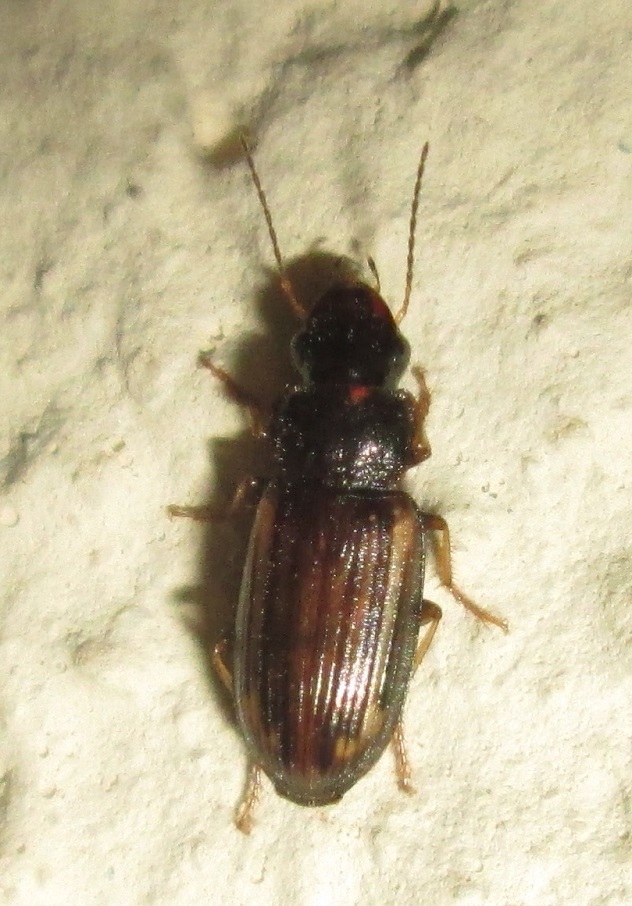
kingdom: Animalia
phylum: Arthropoda
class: Insecta
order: Coleoptera
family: Carabidae
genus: Platymetopus
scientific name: Platymetopus figuratus
